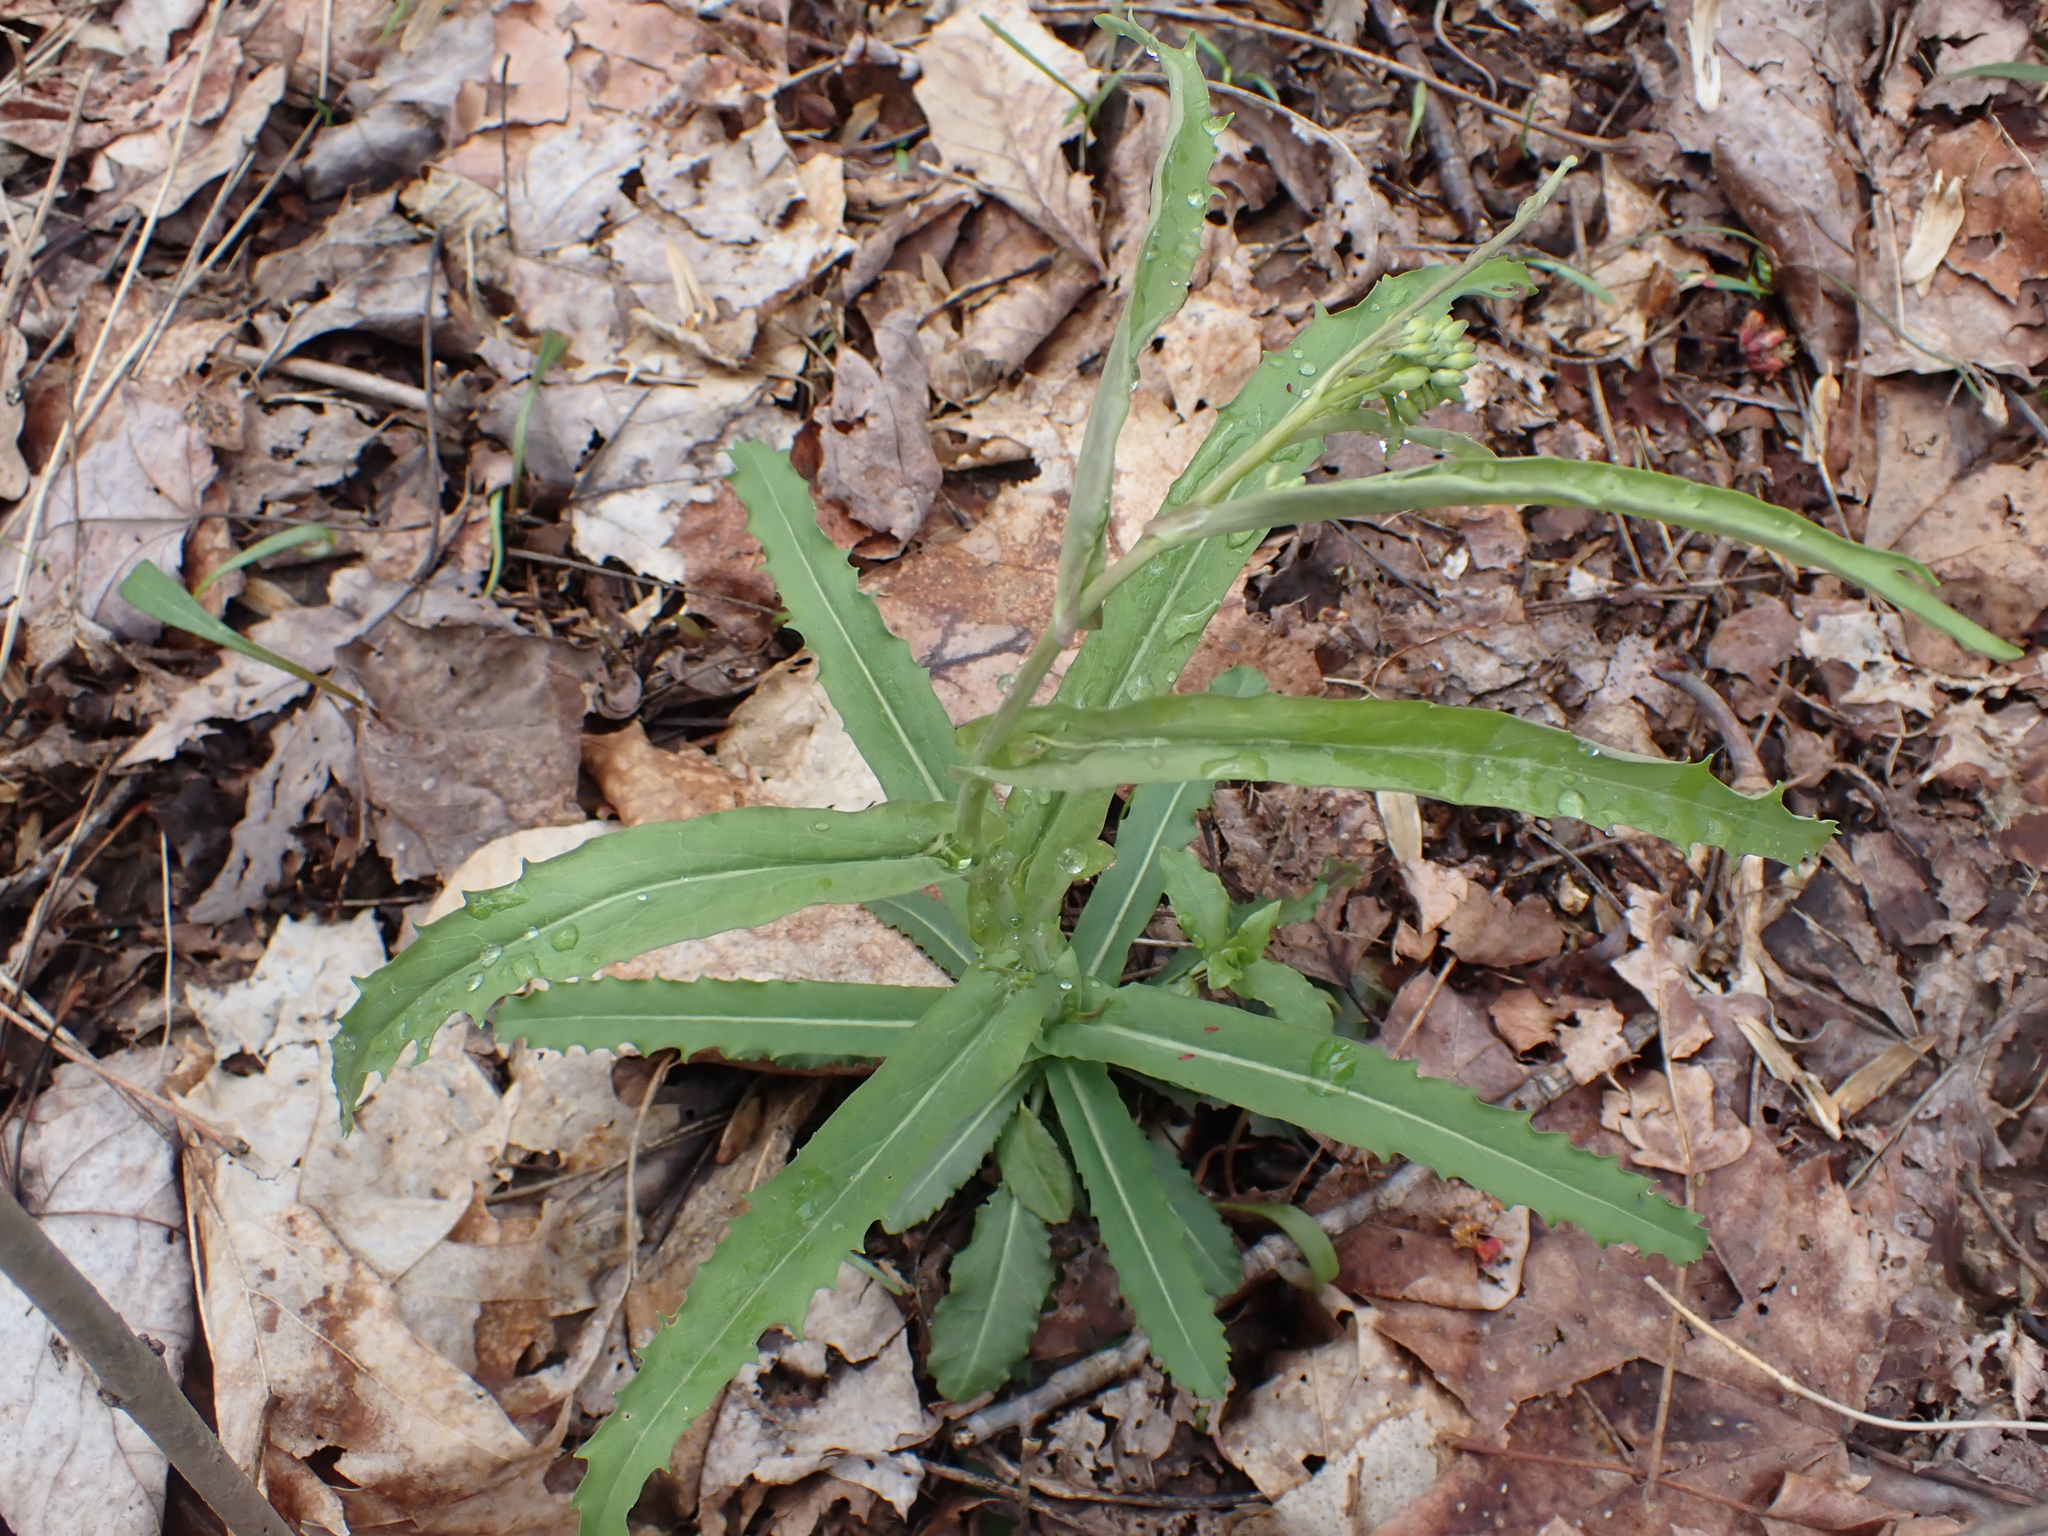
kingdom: Plantae
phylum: Tracheophyta
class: Magnoliopsida
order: Brassicales
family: Brassicaceae
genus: Borodinia
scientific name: Borodinia laevigata
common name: Smooth rockcress
